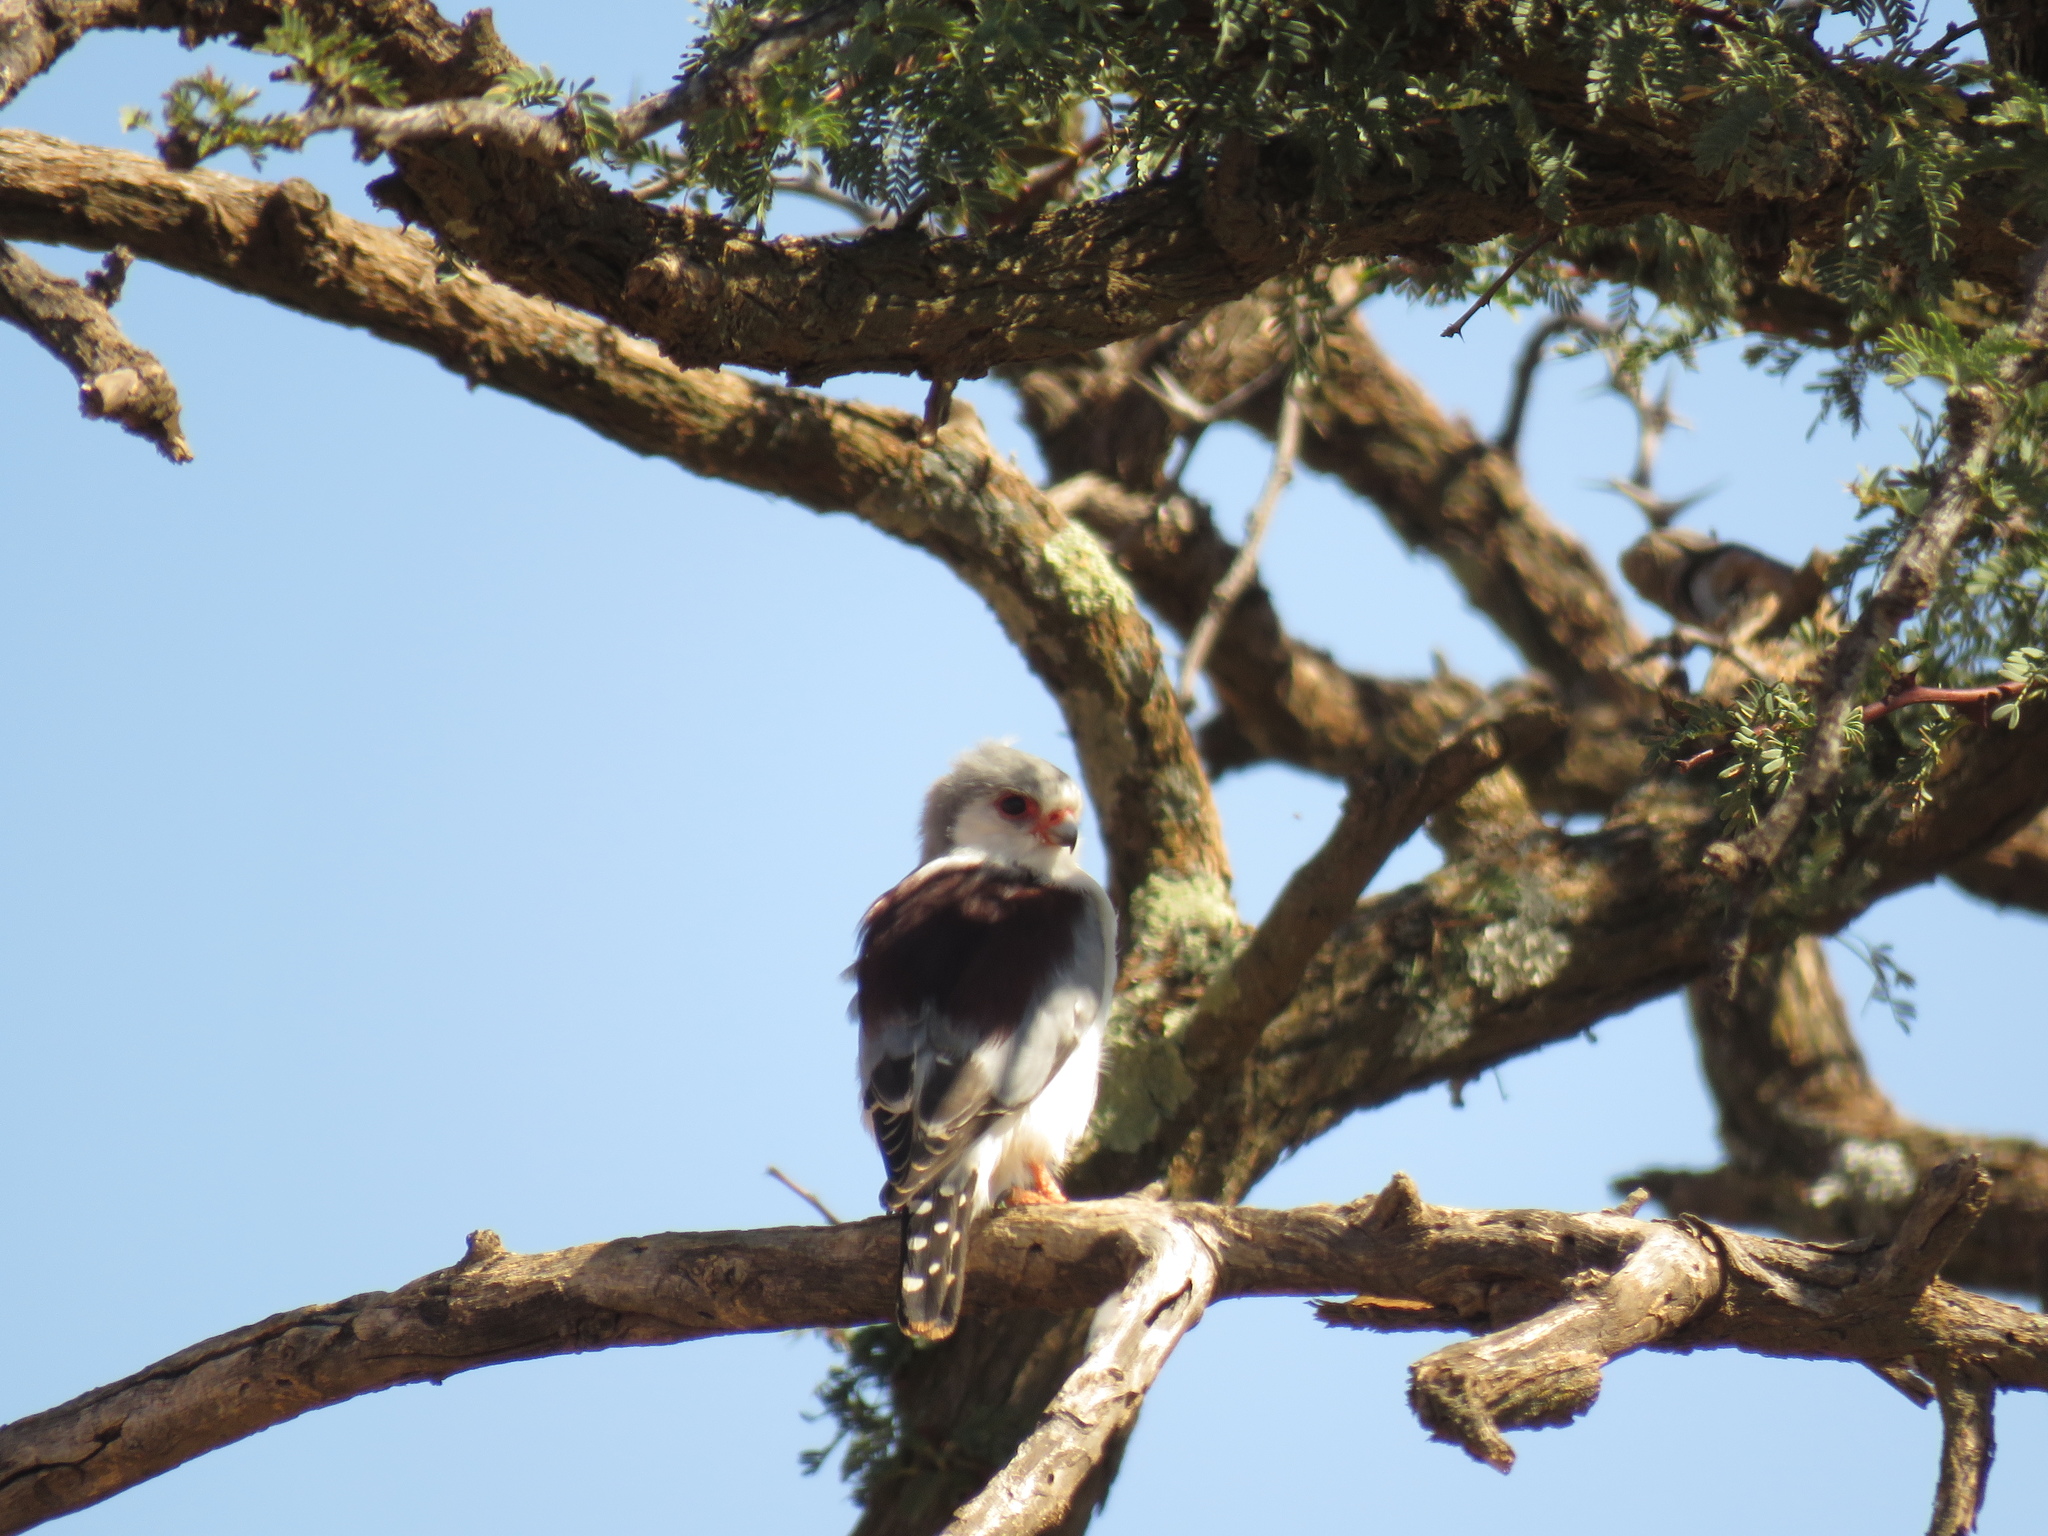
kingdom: Animalia
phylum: Chordata
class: Aves
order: Falconiformes
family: Falconidae
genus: Polihierax
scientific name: Polihierax semitorquatus
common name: Pygmy falcon
